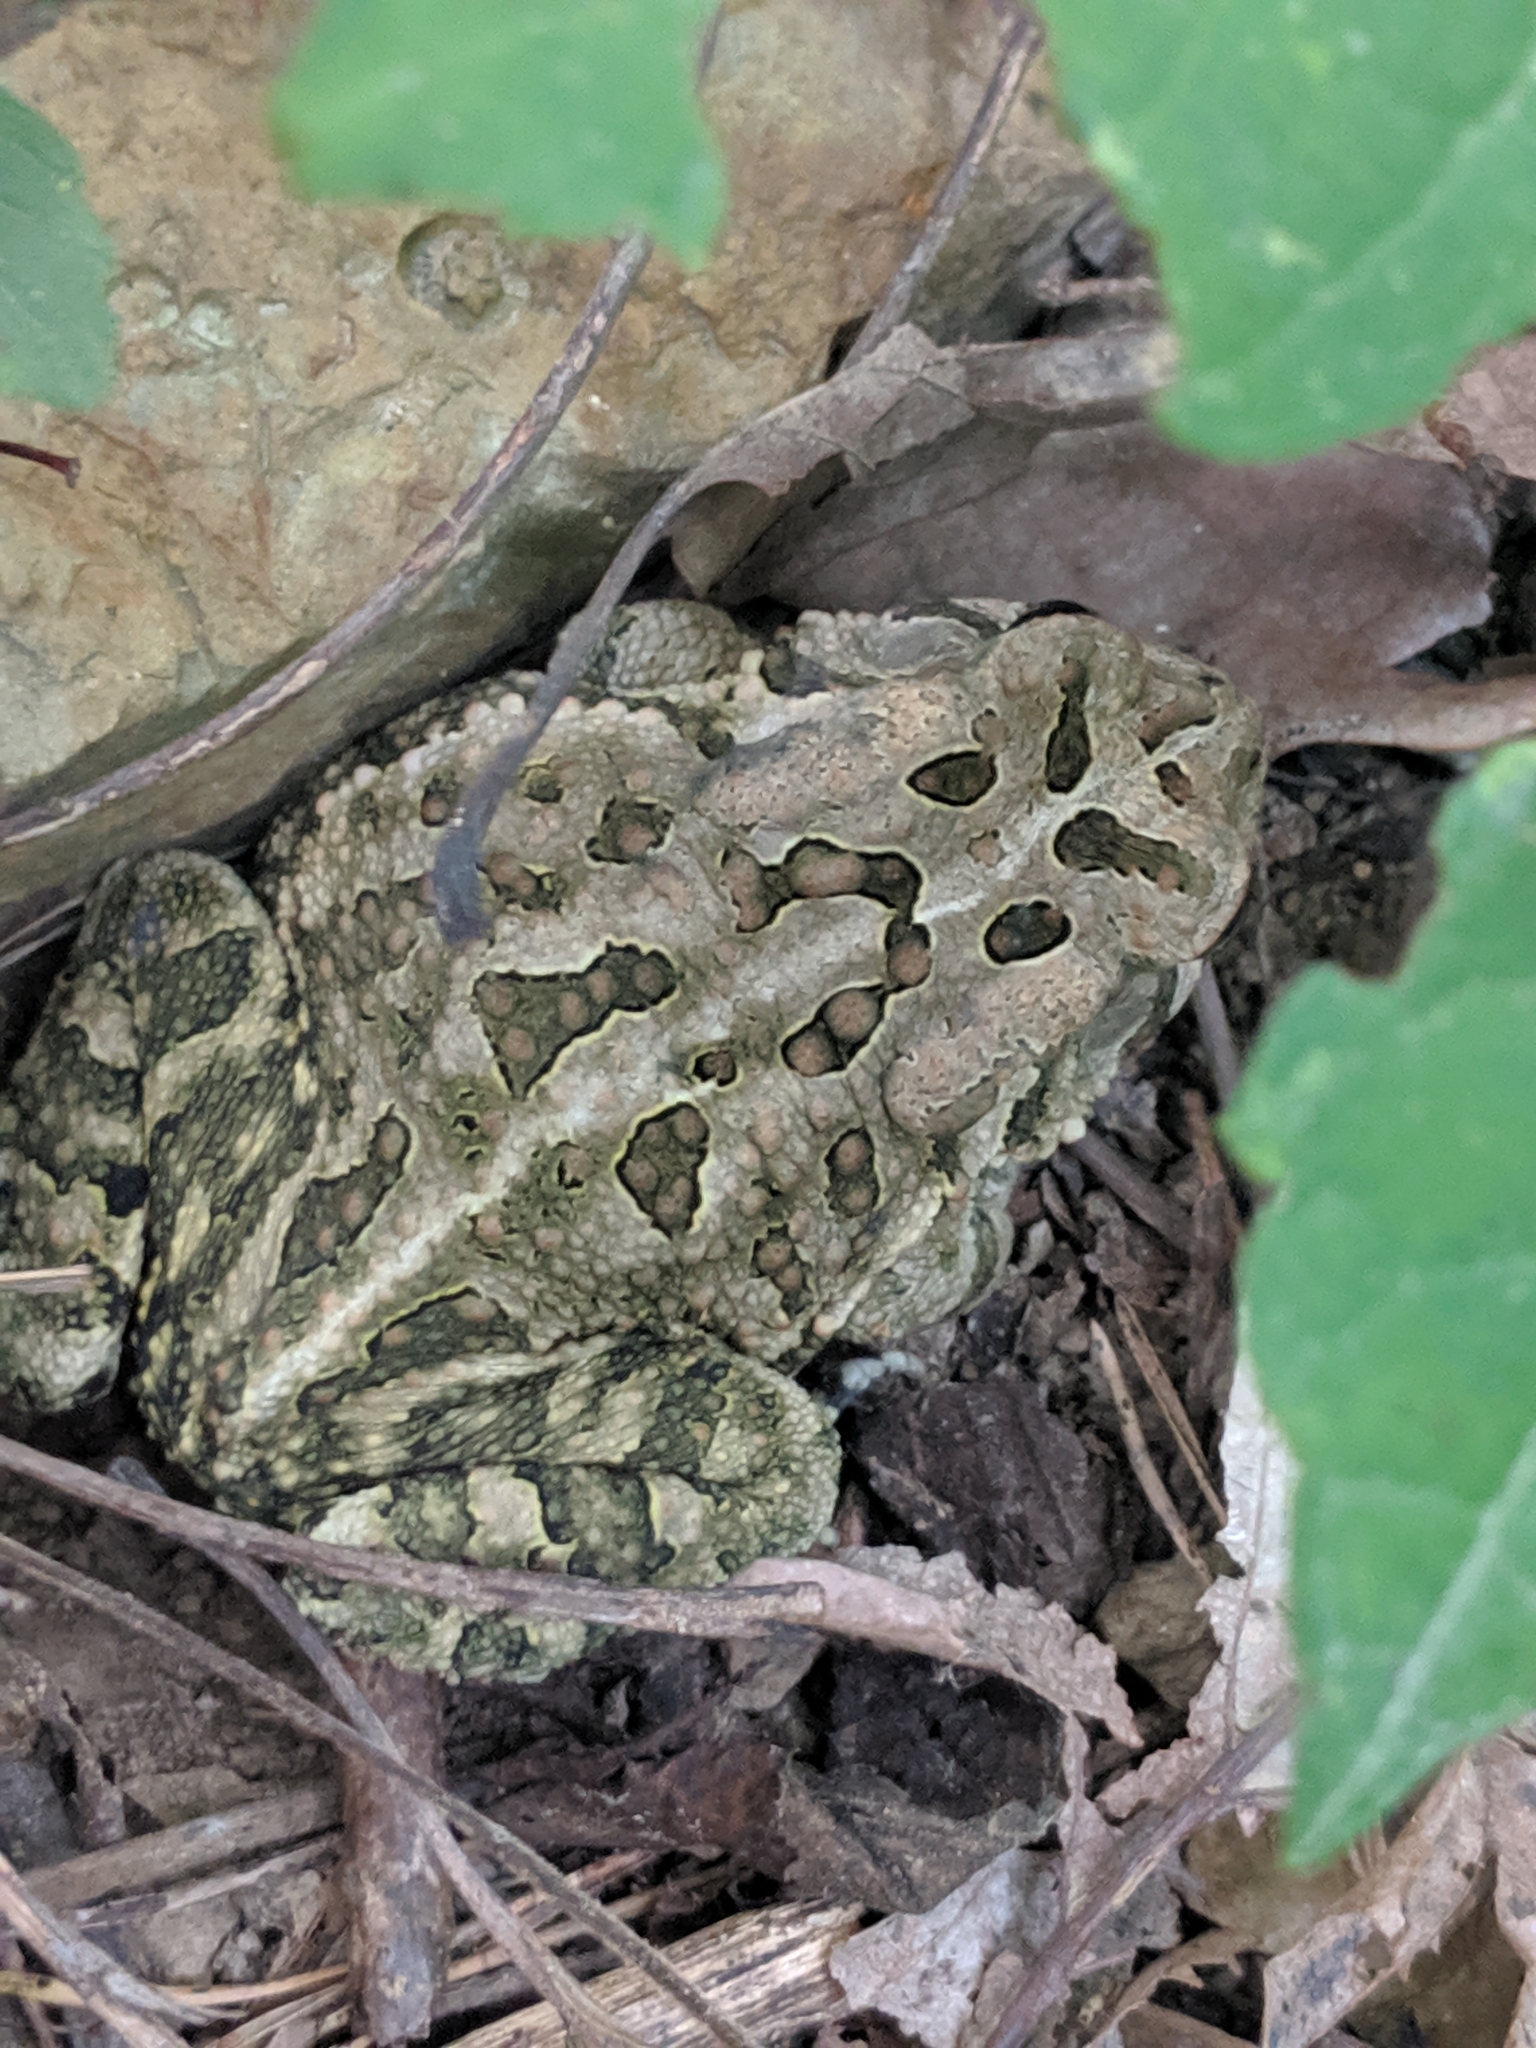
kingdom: Animalia
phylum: Chordata
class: Amphibia
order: Anura
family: Bufonidae
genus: Anaxyrus
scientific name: Anaxyrus fowleri
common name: Fowler's toad
